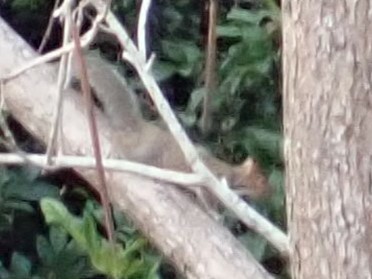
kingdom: Animalia
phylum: Chordata
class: Mammalia
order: Rodentia
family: Sciuridae
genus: Sciurus
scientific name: Sciurus carolinensis
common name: Eastern gray squirrel
